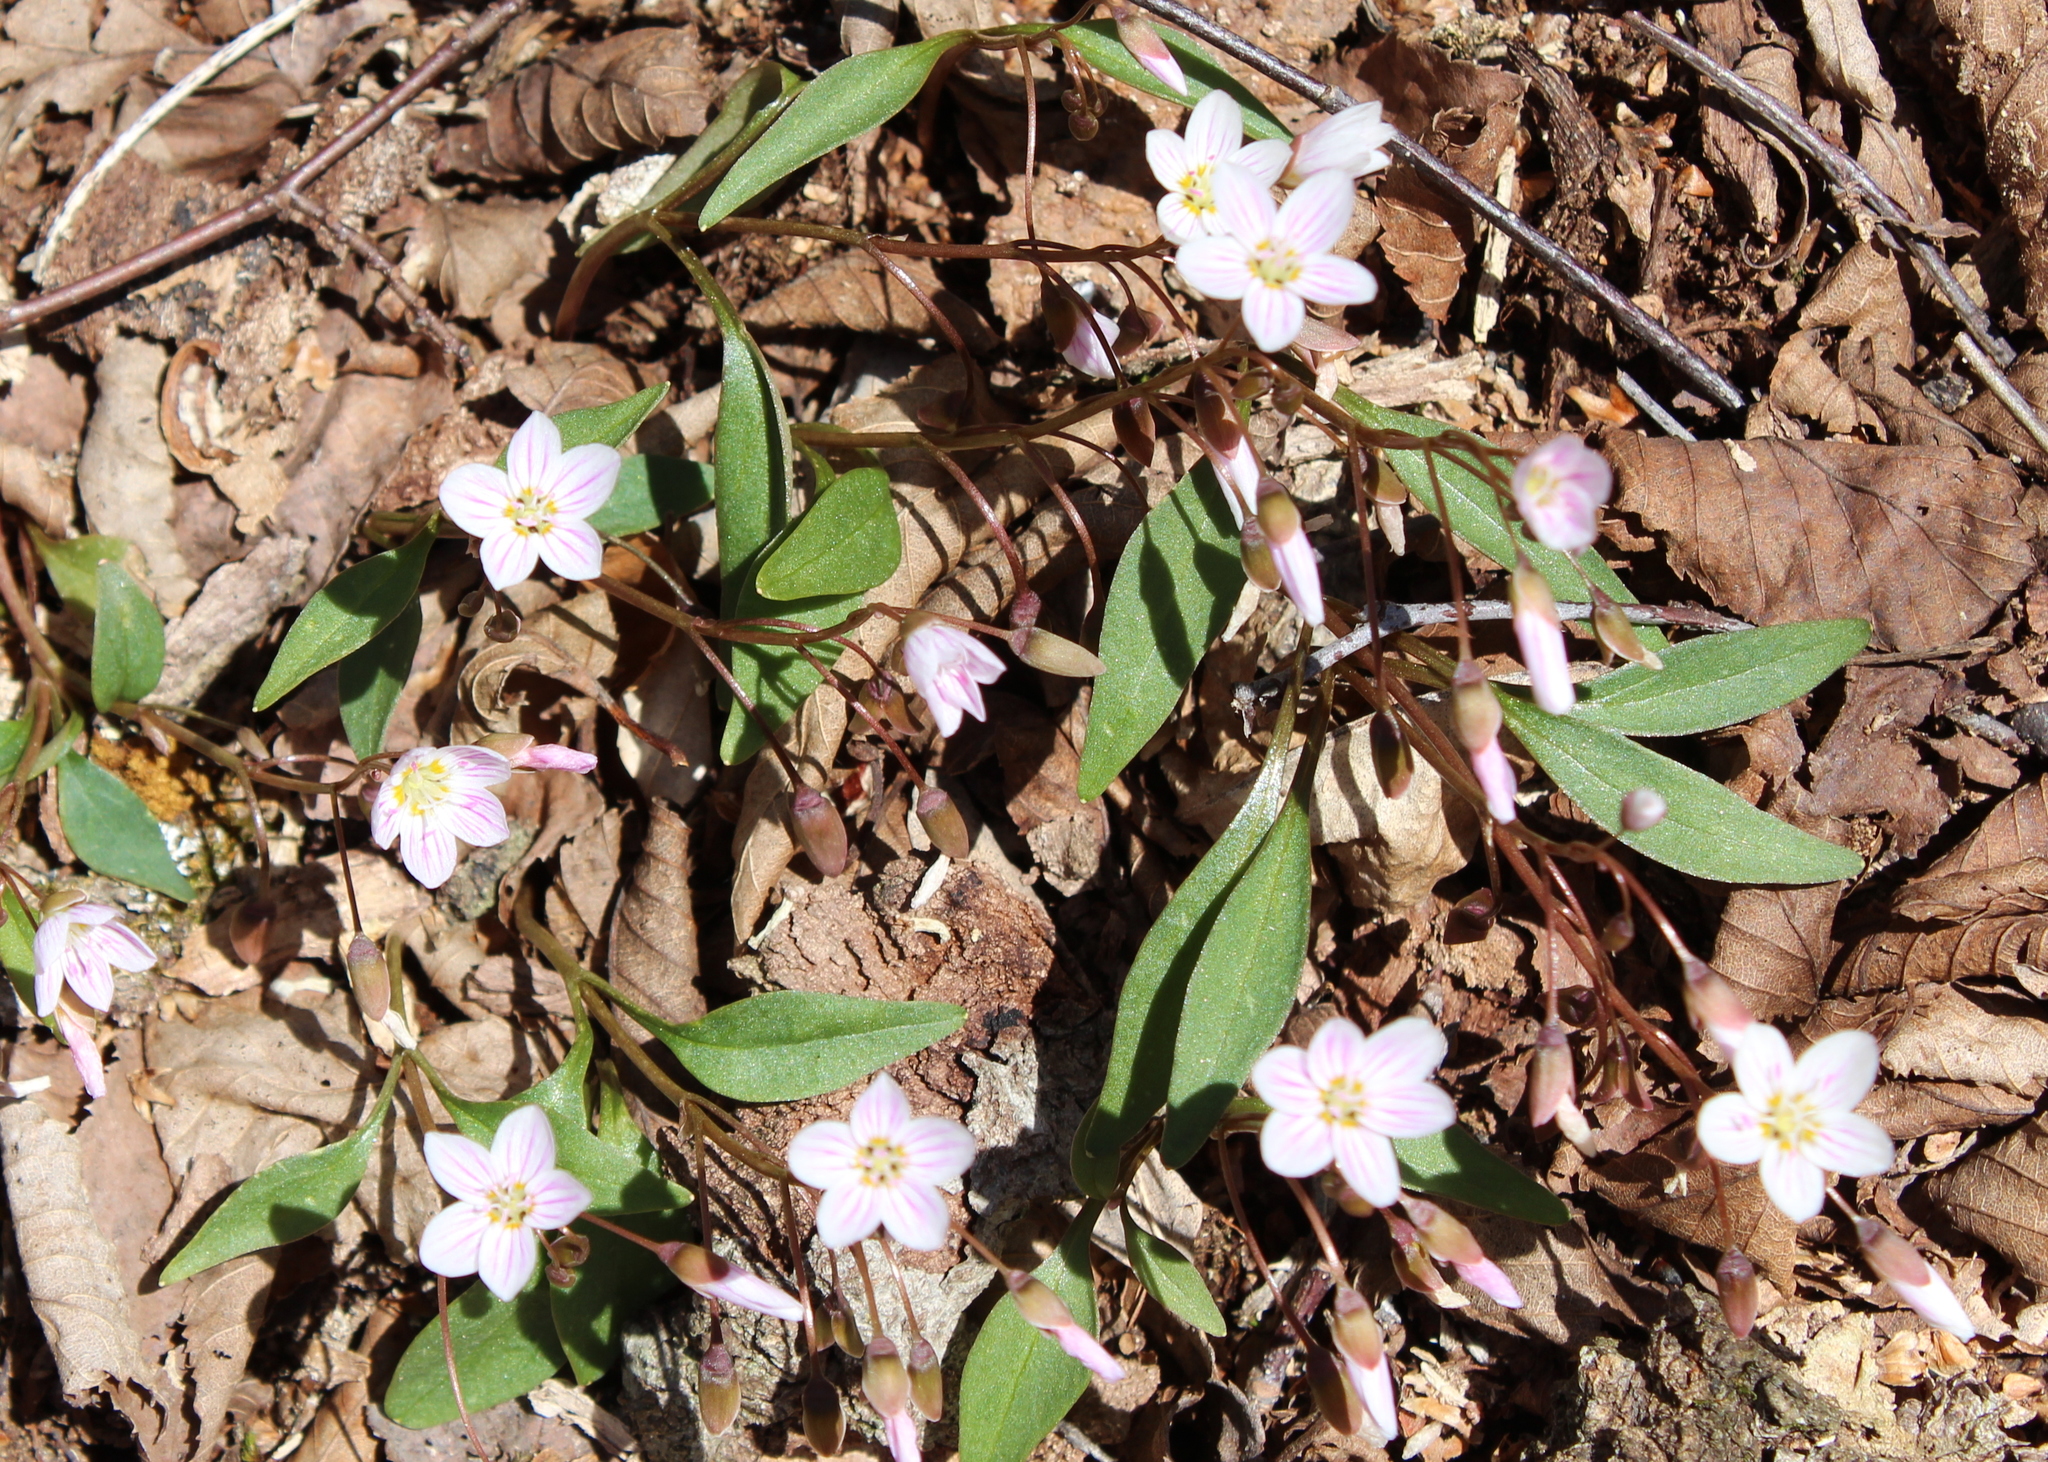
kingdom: Plantae
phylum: Tracheophyta
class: Magnoliopsida
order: Caryophyllales
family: Montiaceae
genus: Claytonia
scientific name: Claytonia caroliniana
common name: Carolina spring beauty
